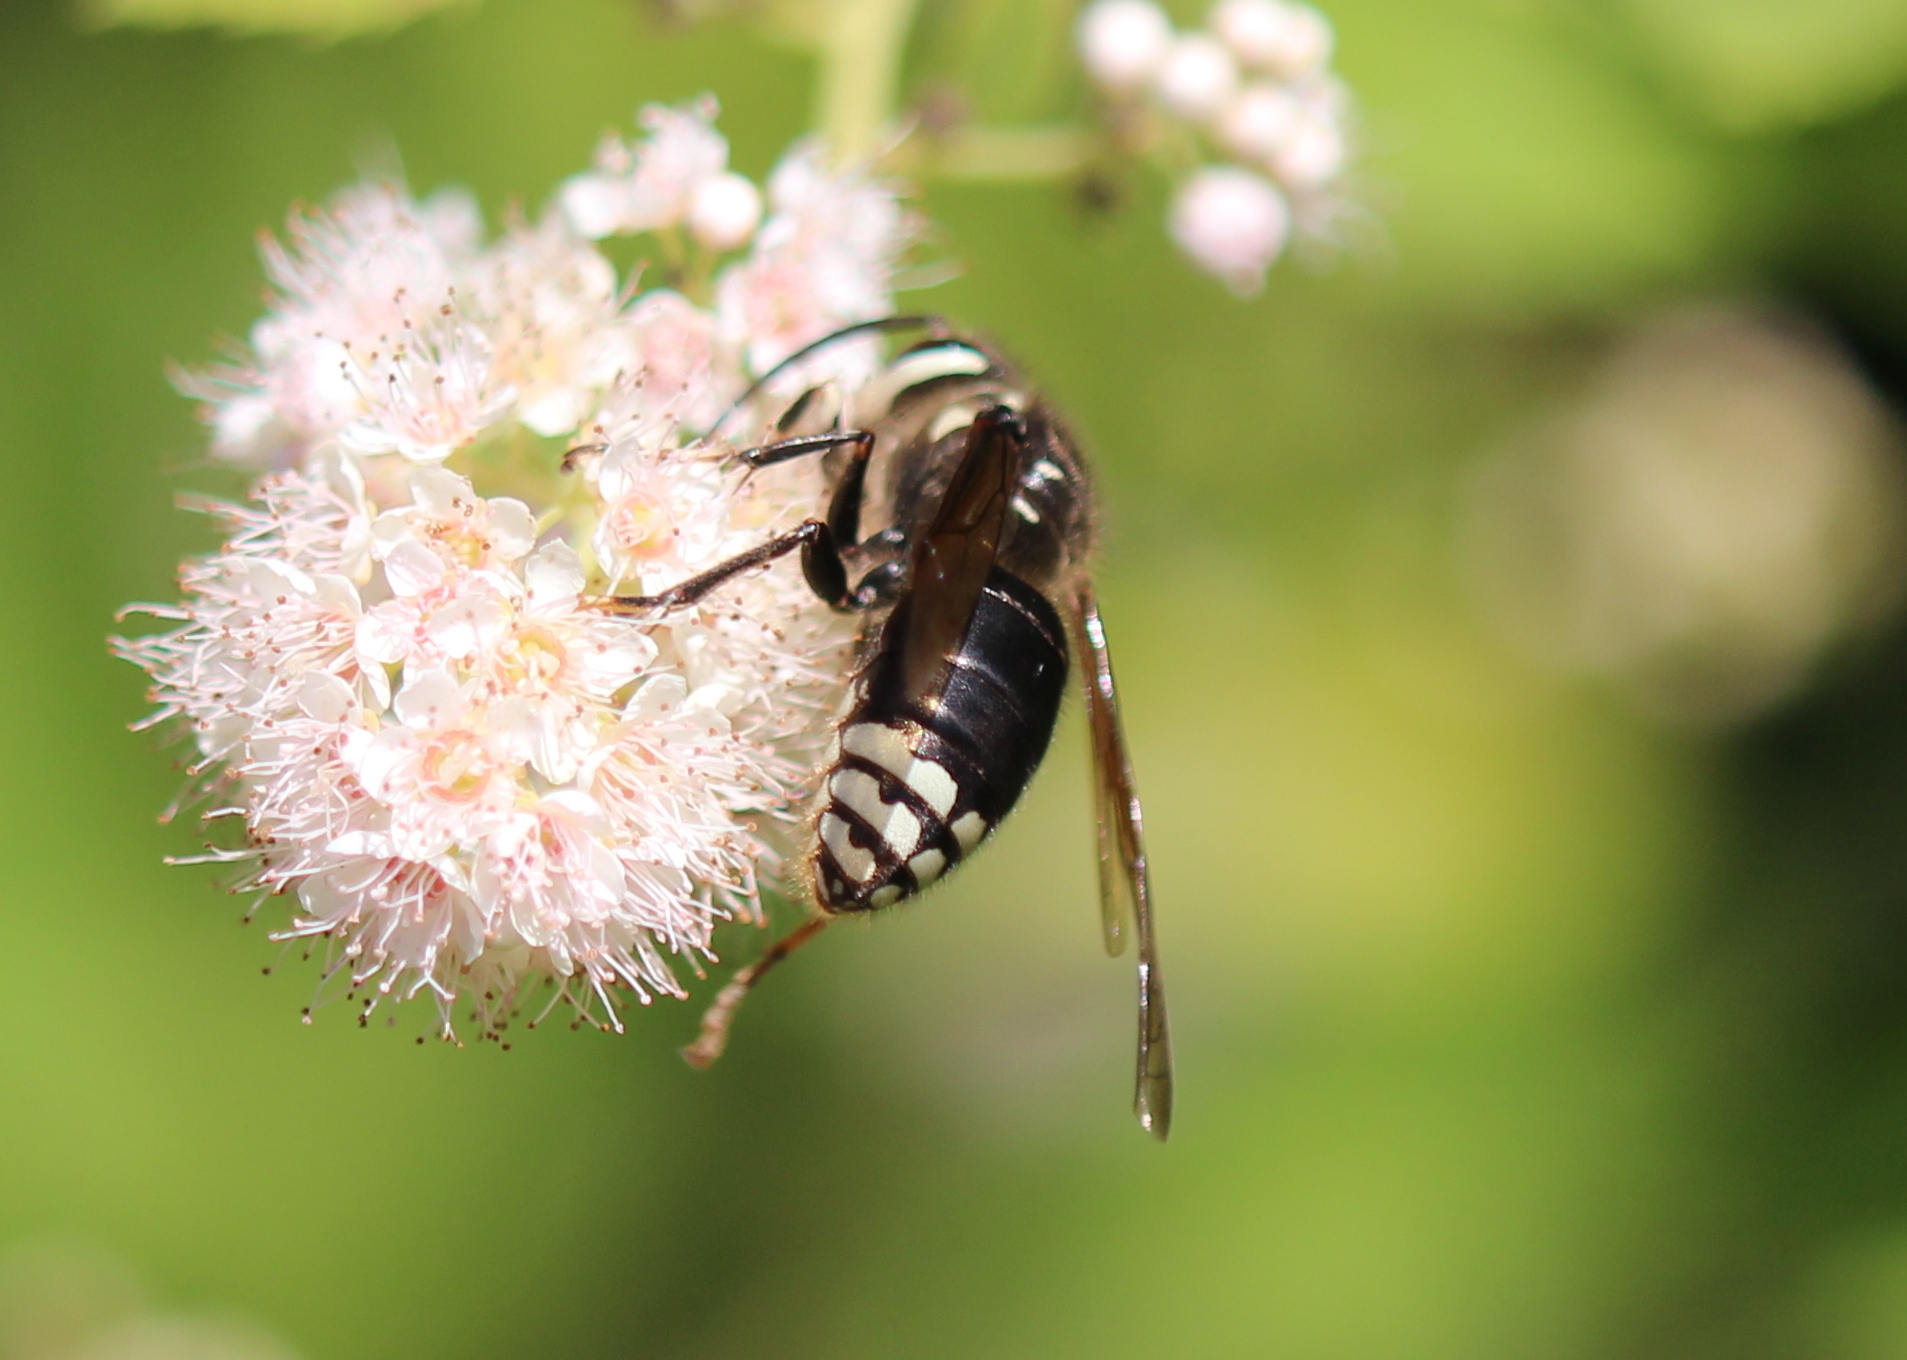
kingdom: Animalia
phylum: Arthropoda
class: Insecta
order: Hymenoptera
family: Vespidae
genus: Dolichovespula
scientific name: Dolichovespula maculata
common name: Bald-faced hornet
